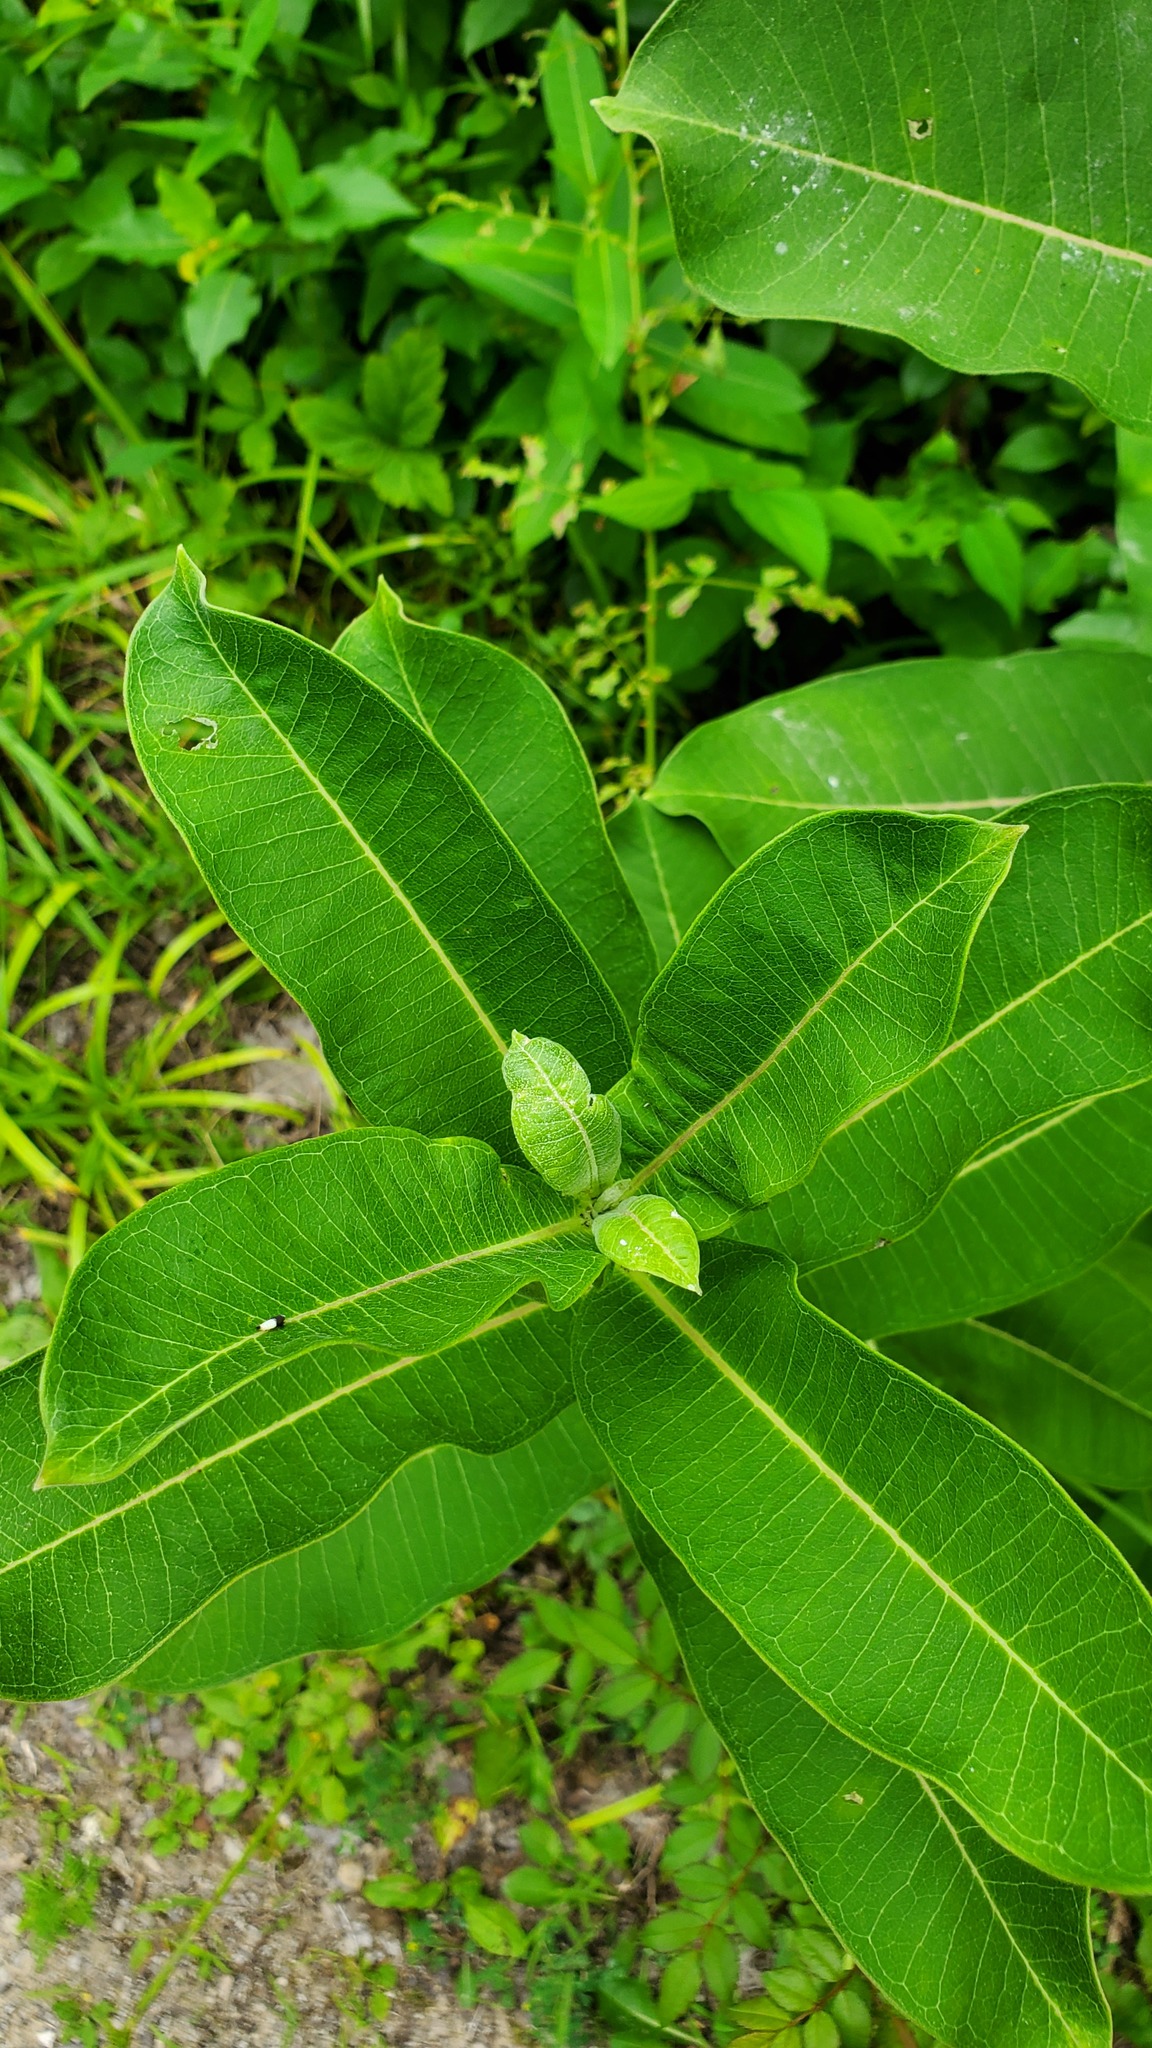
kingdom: Plantae
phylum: Tracheophyta
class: Magnoliopsida
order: Gentianales
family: Apocynaceae
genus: Asclepias
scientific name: Asclepias syriaca
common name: Common milkweed
